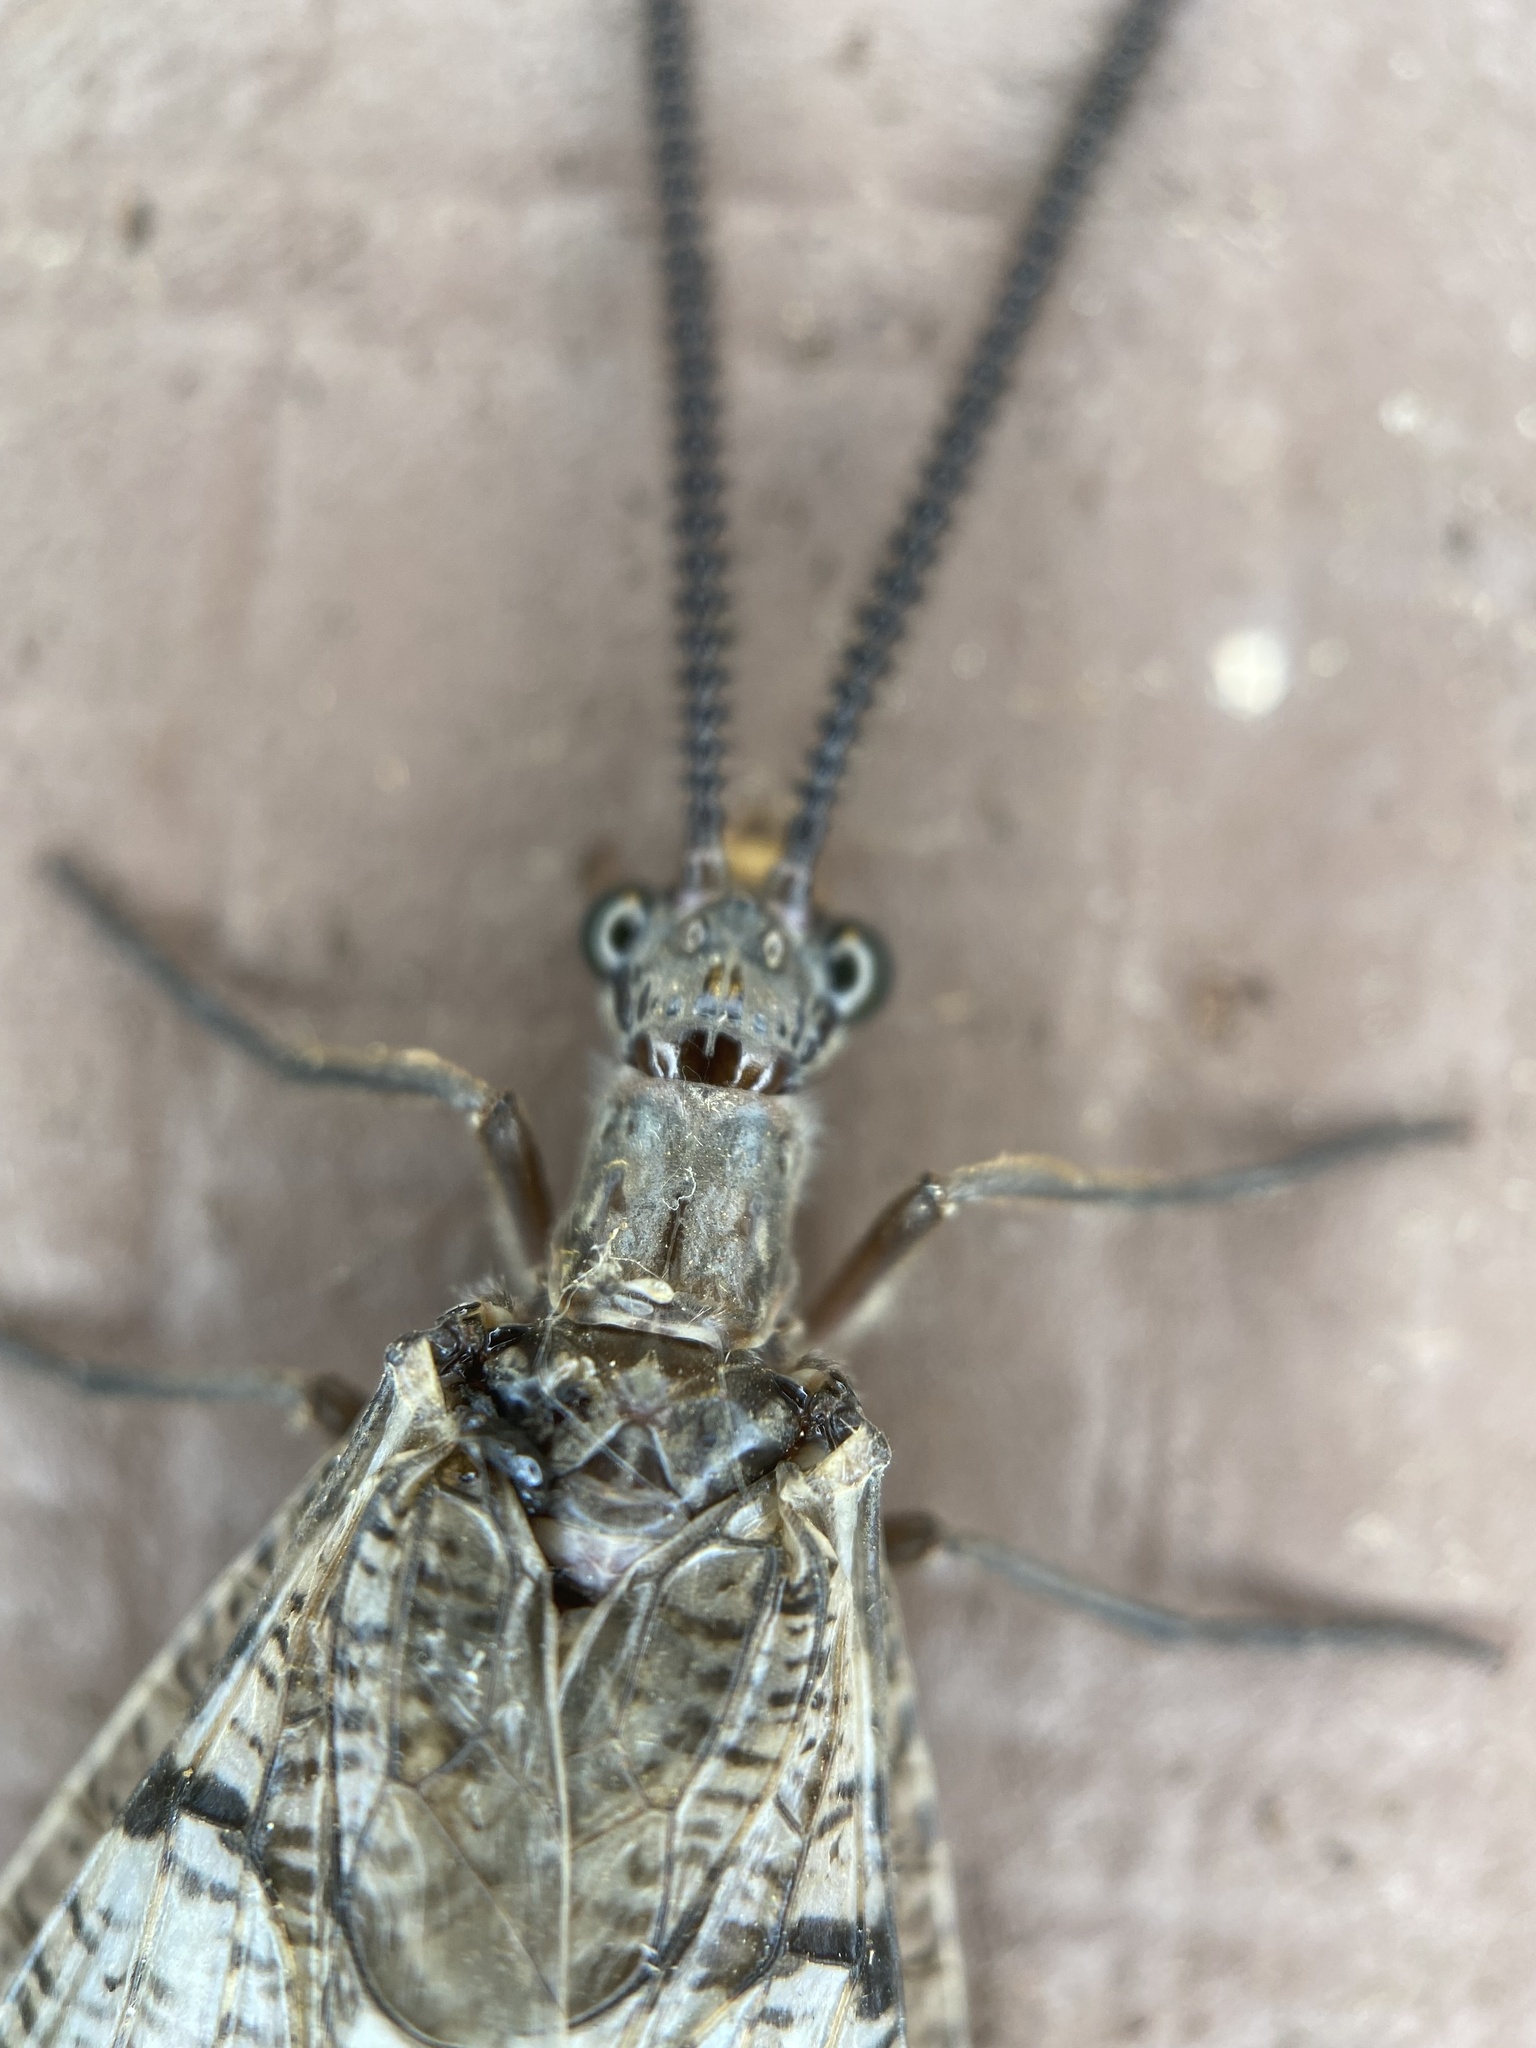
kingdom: Animalia
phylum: Arthropoda
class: Insecta
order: Megaloptera
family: Corydalidae
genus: Neohermes
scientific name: Neohermes californicus
